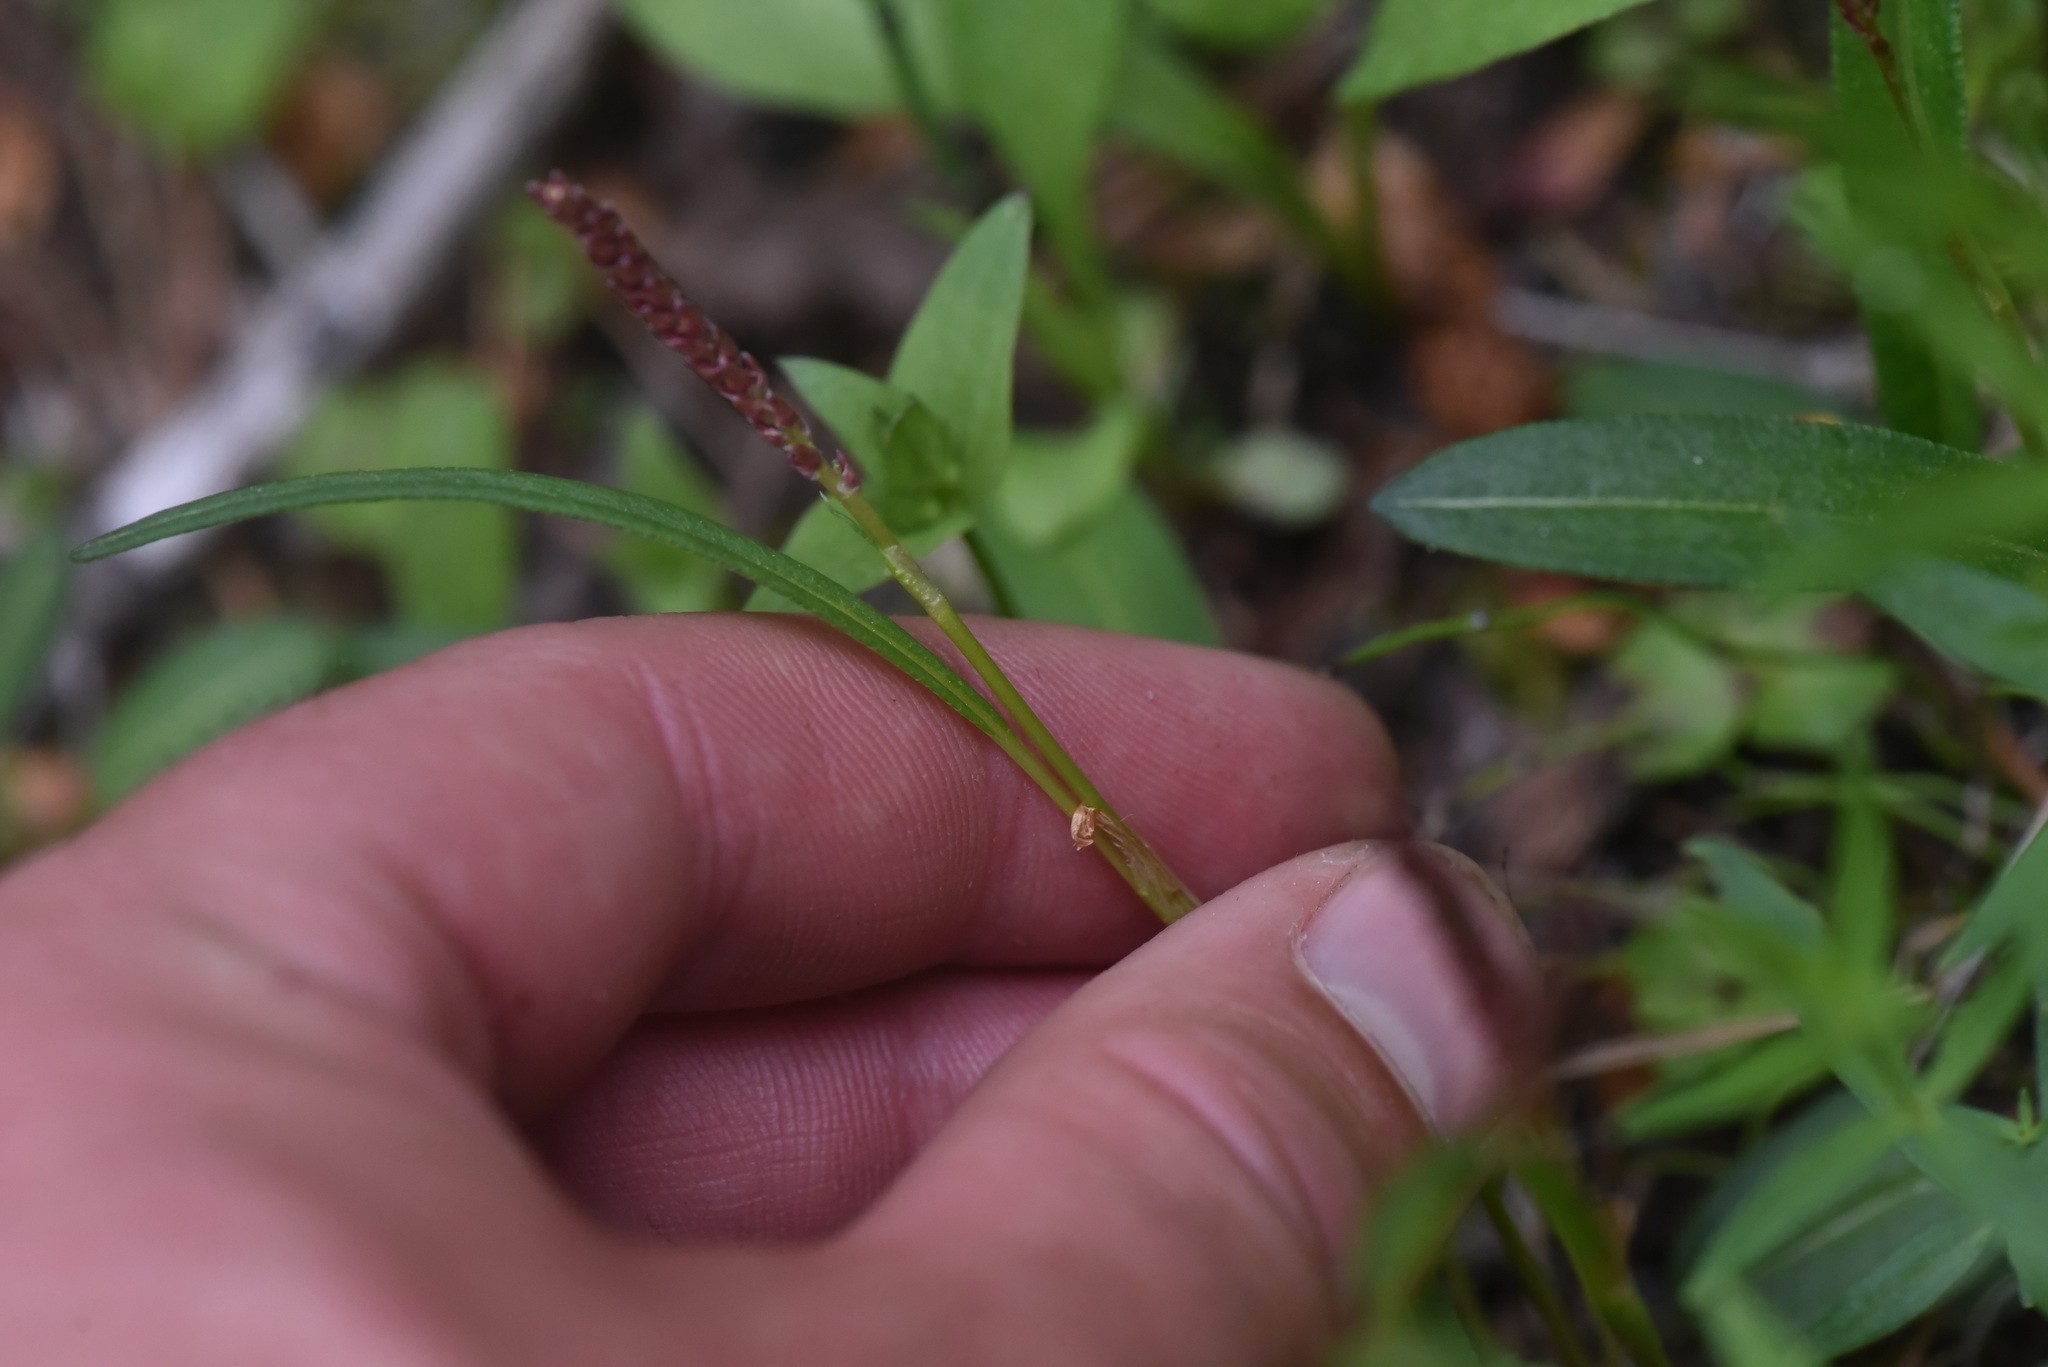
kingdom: Plantae
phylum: Tracheophyta
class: Magnoliopsida
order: Caryophyllales
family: Polygonaceae
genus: Bistorta
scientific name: Bistorta vivipara
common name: Alpine bistort
